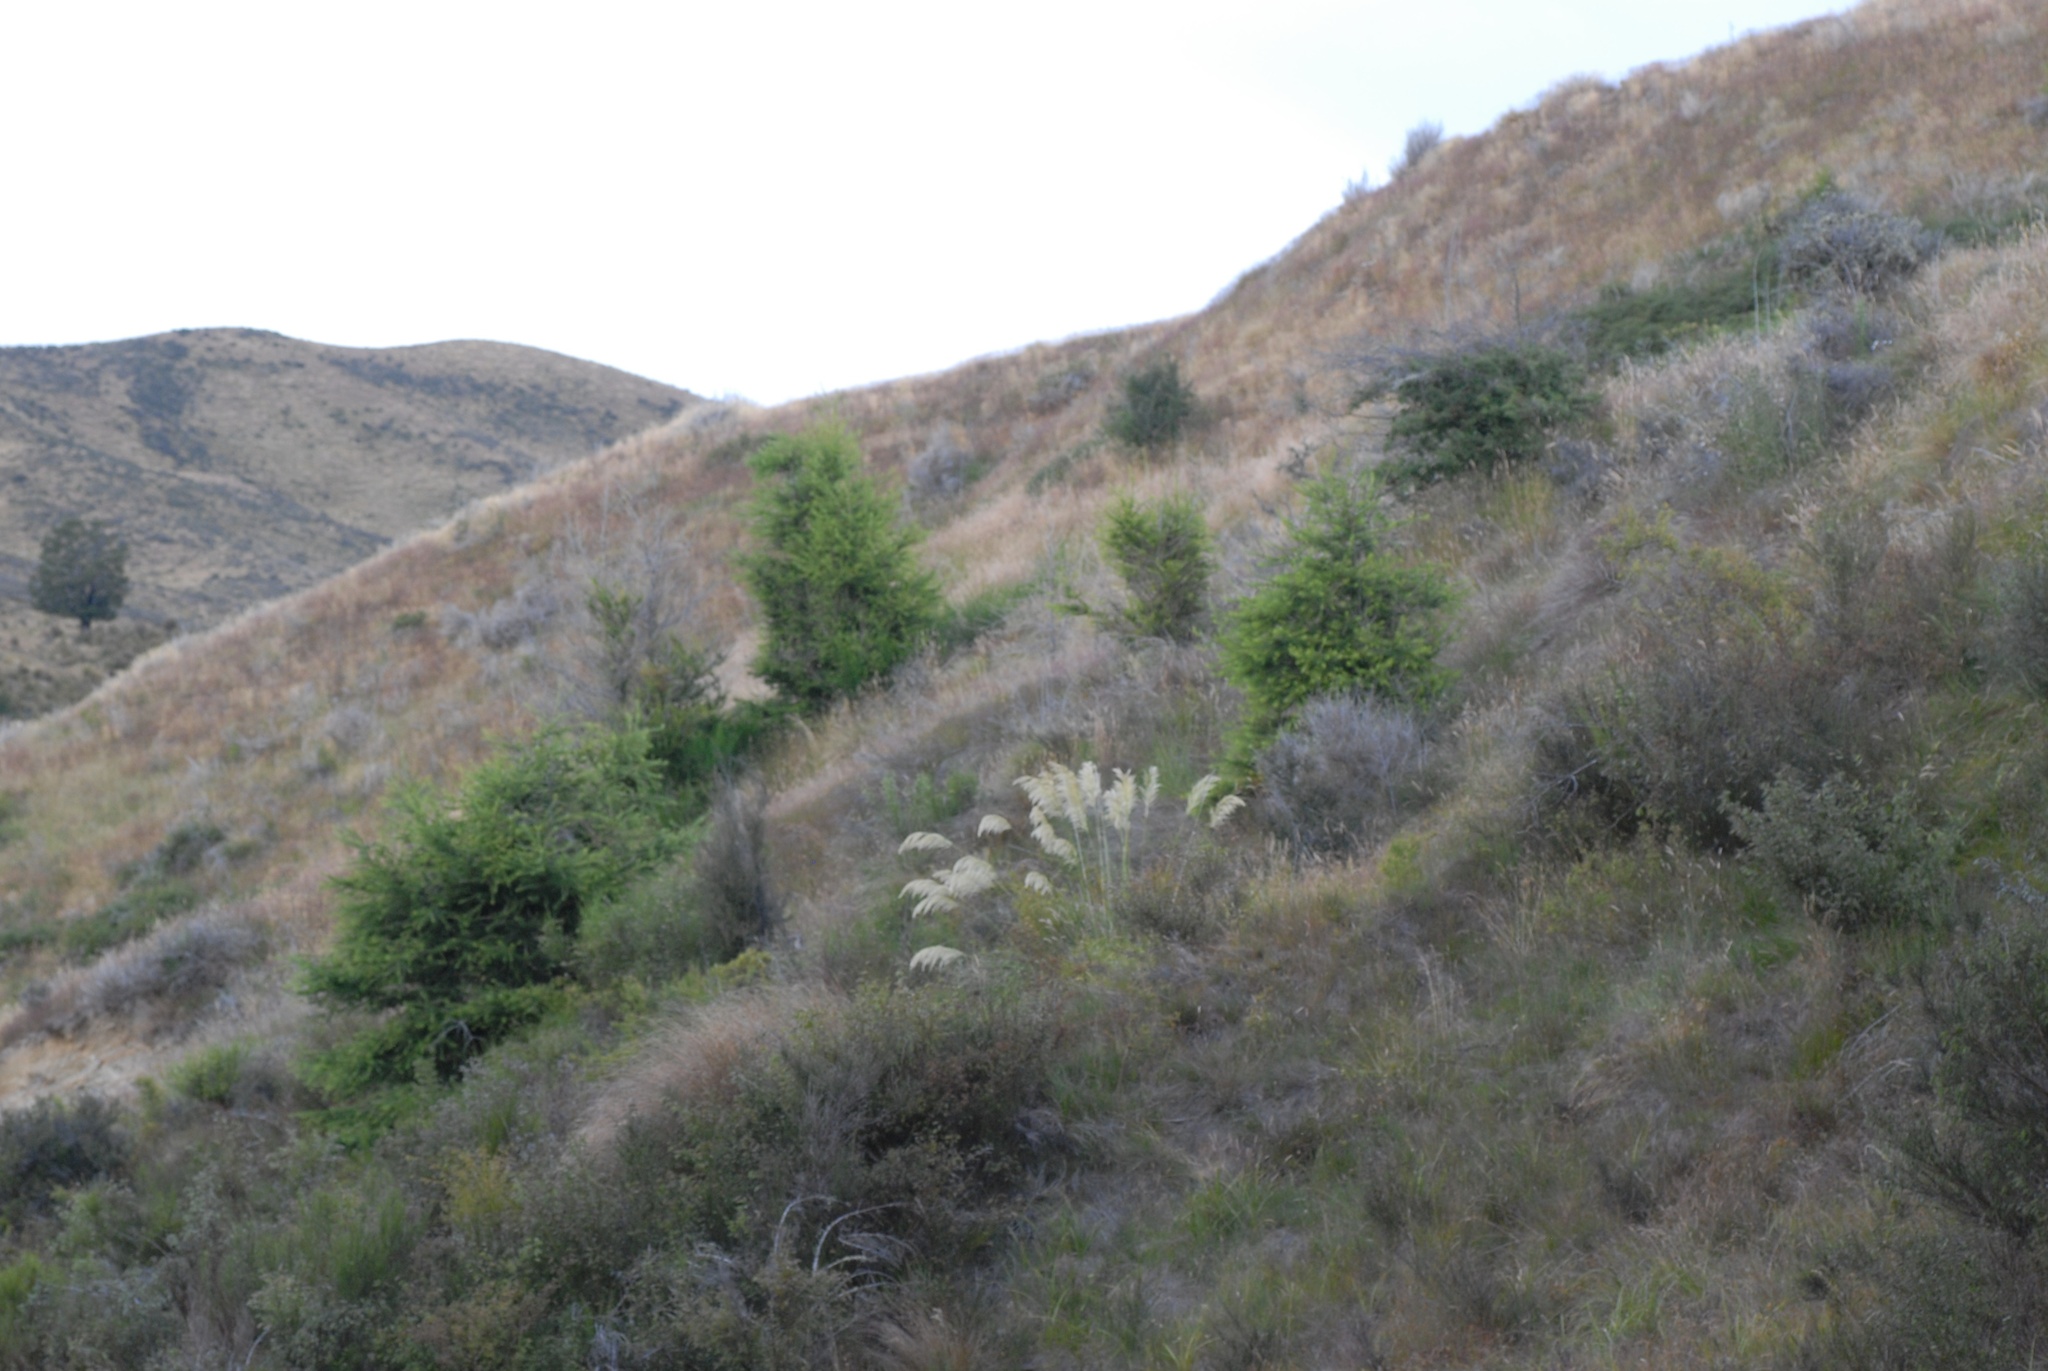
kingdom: Plantae
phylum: Tracheophyta
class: Liliopsida
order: Poales
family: Poaceae
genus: Austroderia
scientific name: Austroderia richardii
